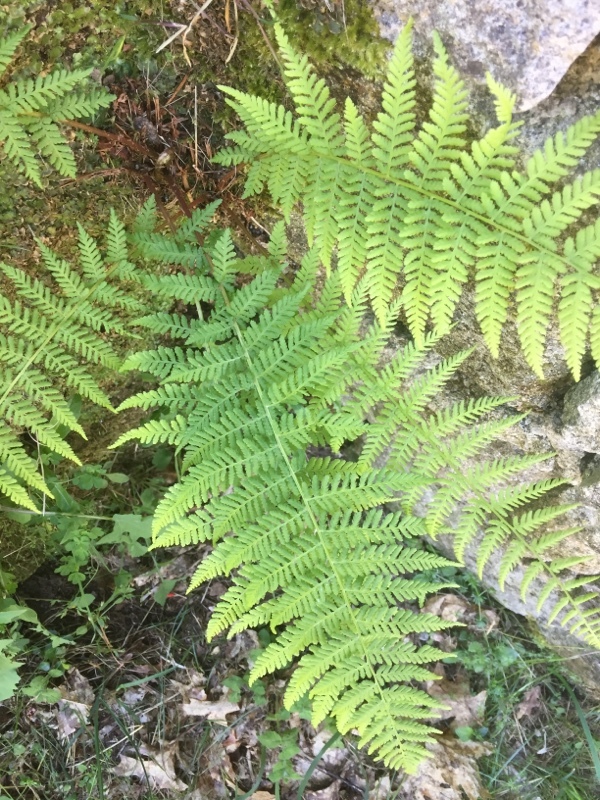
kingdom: Plantae
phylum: Tracheophyta
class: Polypodiopsida
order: Polypodiales
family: Athyriaceae
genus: Athyrium
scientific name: Athyrium filix-femina
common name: Lady fern
